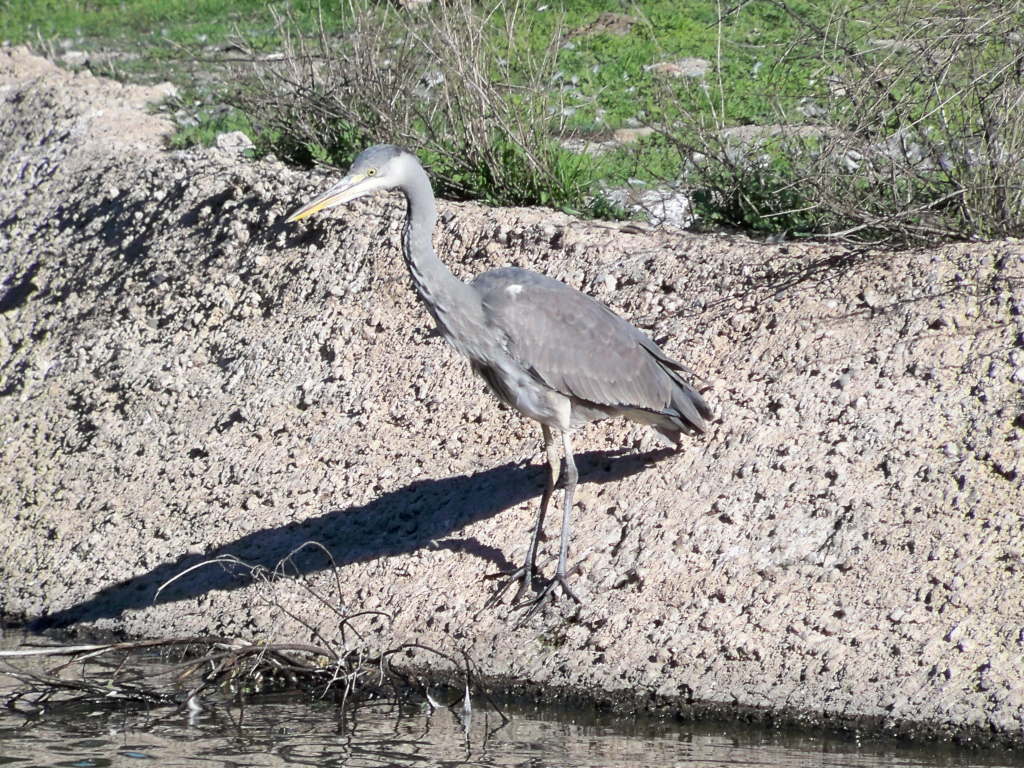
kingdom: Animalia
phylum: Chordata
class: Aves
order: Pelecaniformes
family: Ardeidae
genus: Ardea
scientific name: Ardea cinerea
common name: Grey heron
